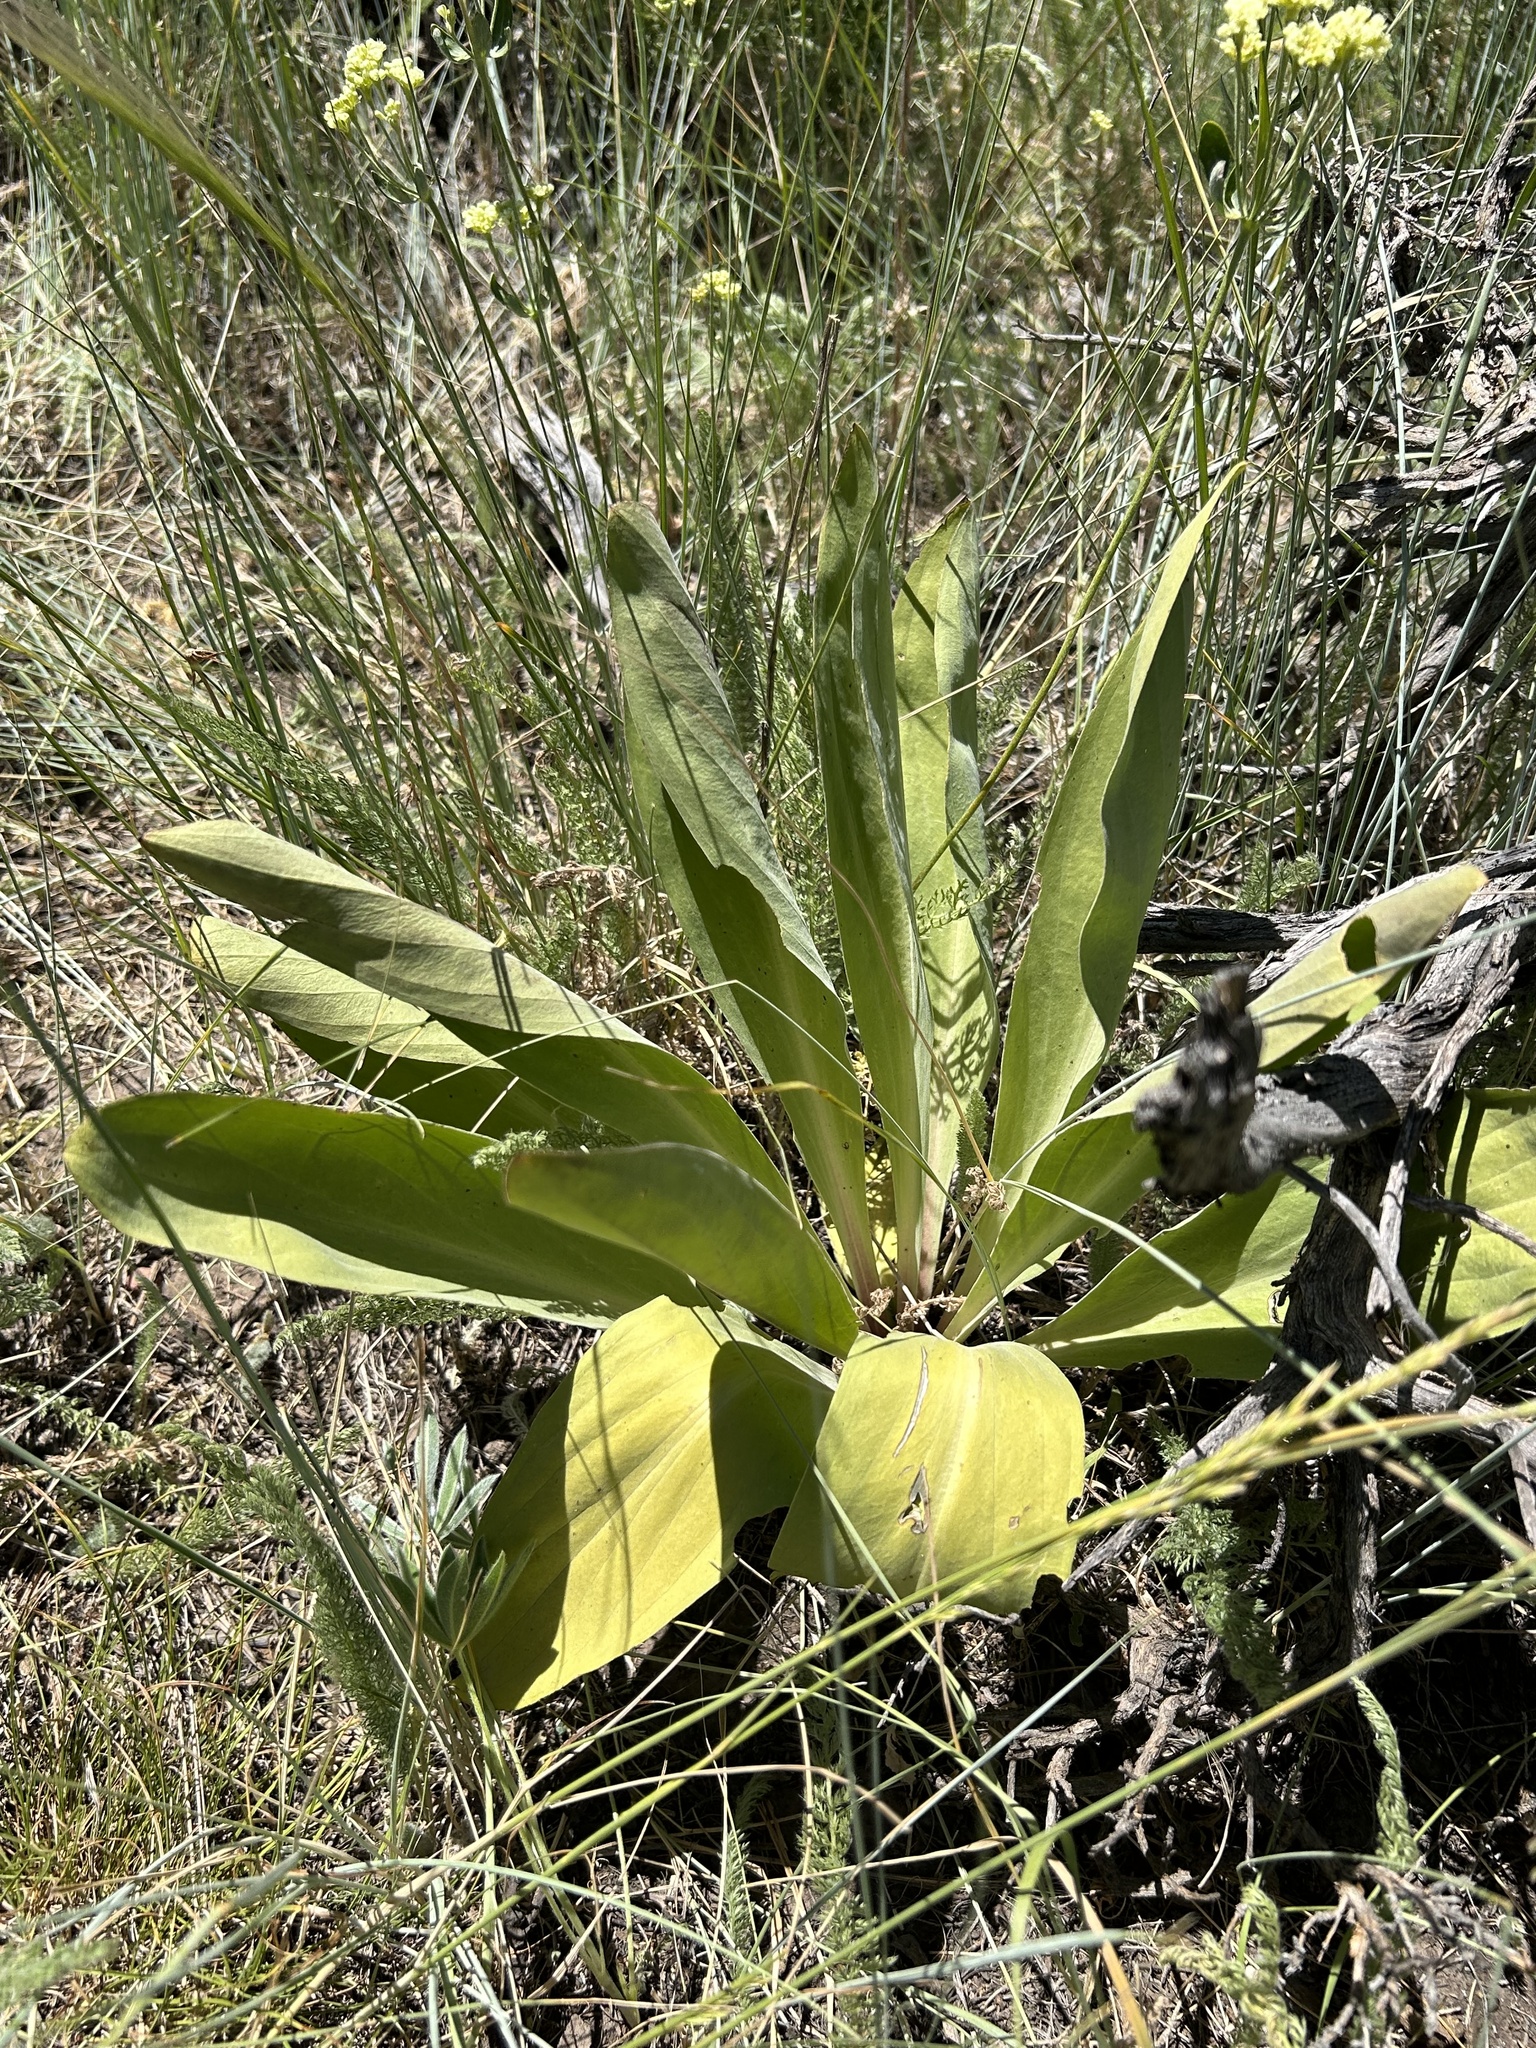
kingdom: Plantae
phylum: Tracheophyta
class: Magnoliopsida
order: Gentianales
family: Gentianaceae
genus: Frasera
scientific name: Frasera speciosa
